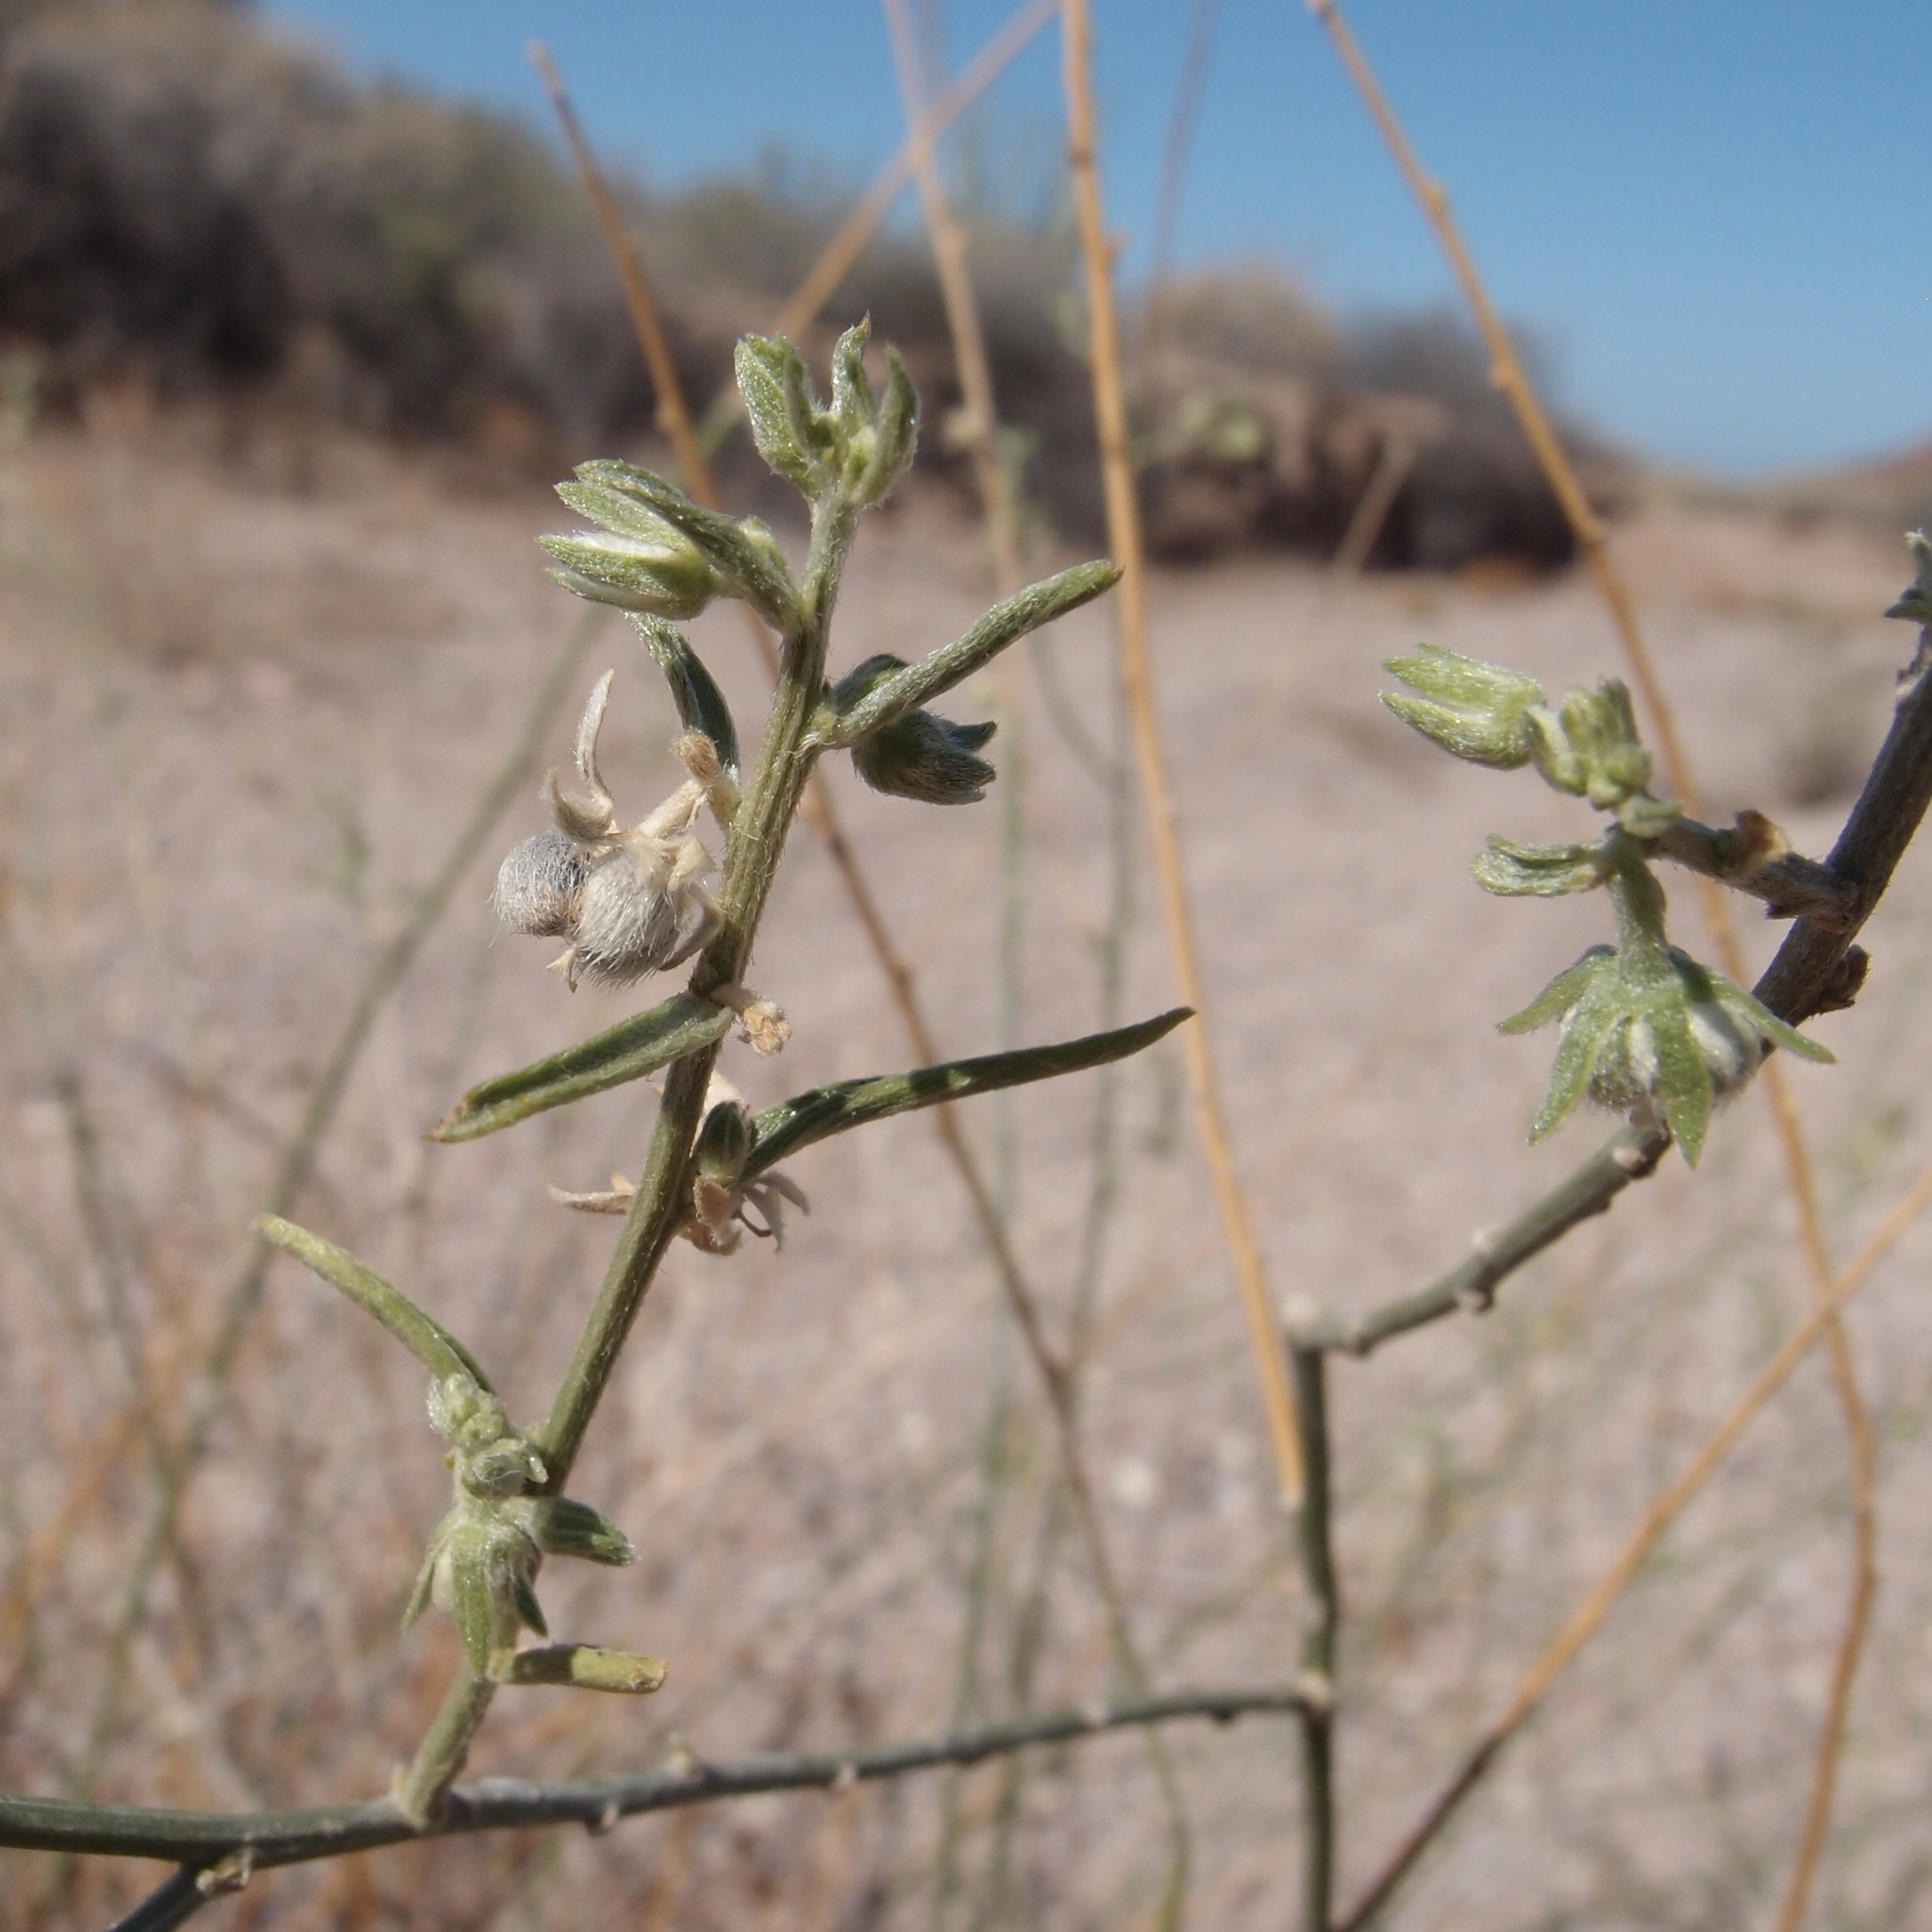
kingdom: Plantae
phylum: Tracheophyta
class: Magnoliopsida
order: Malpighiales
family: Euphorbiaceae
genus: Ditaxis
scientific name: Ditaxis lanceolata
